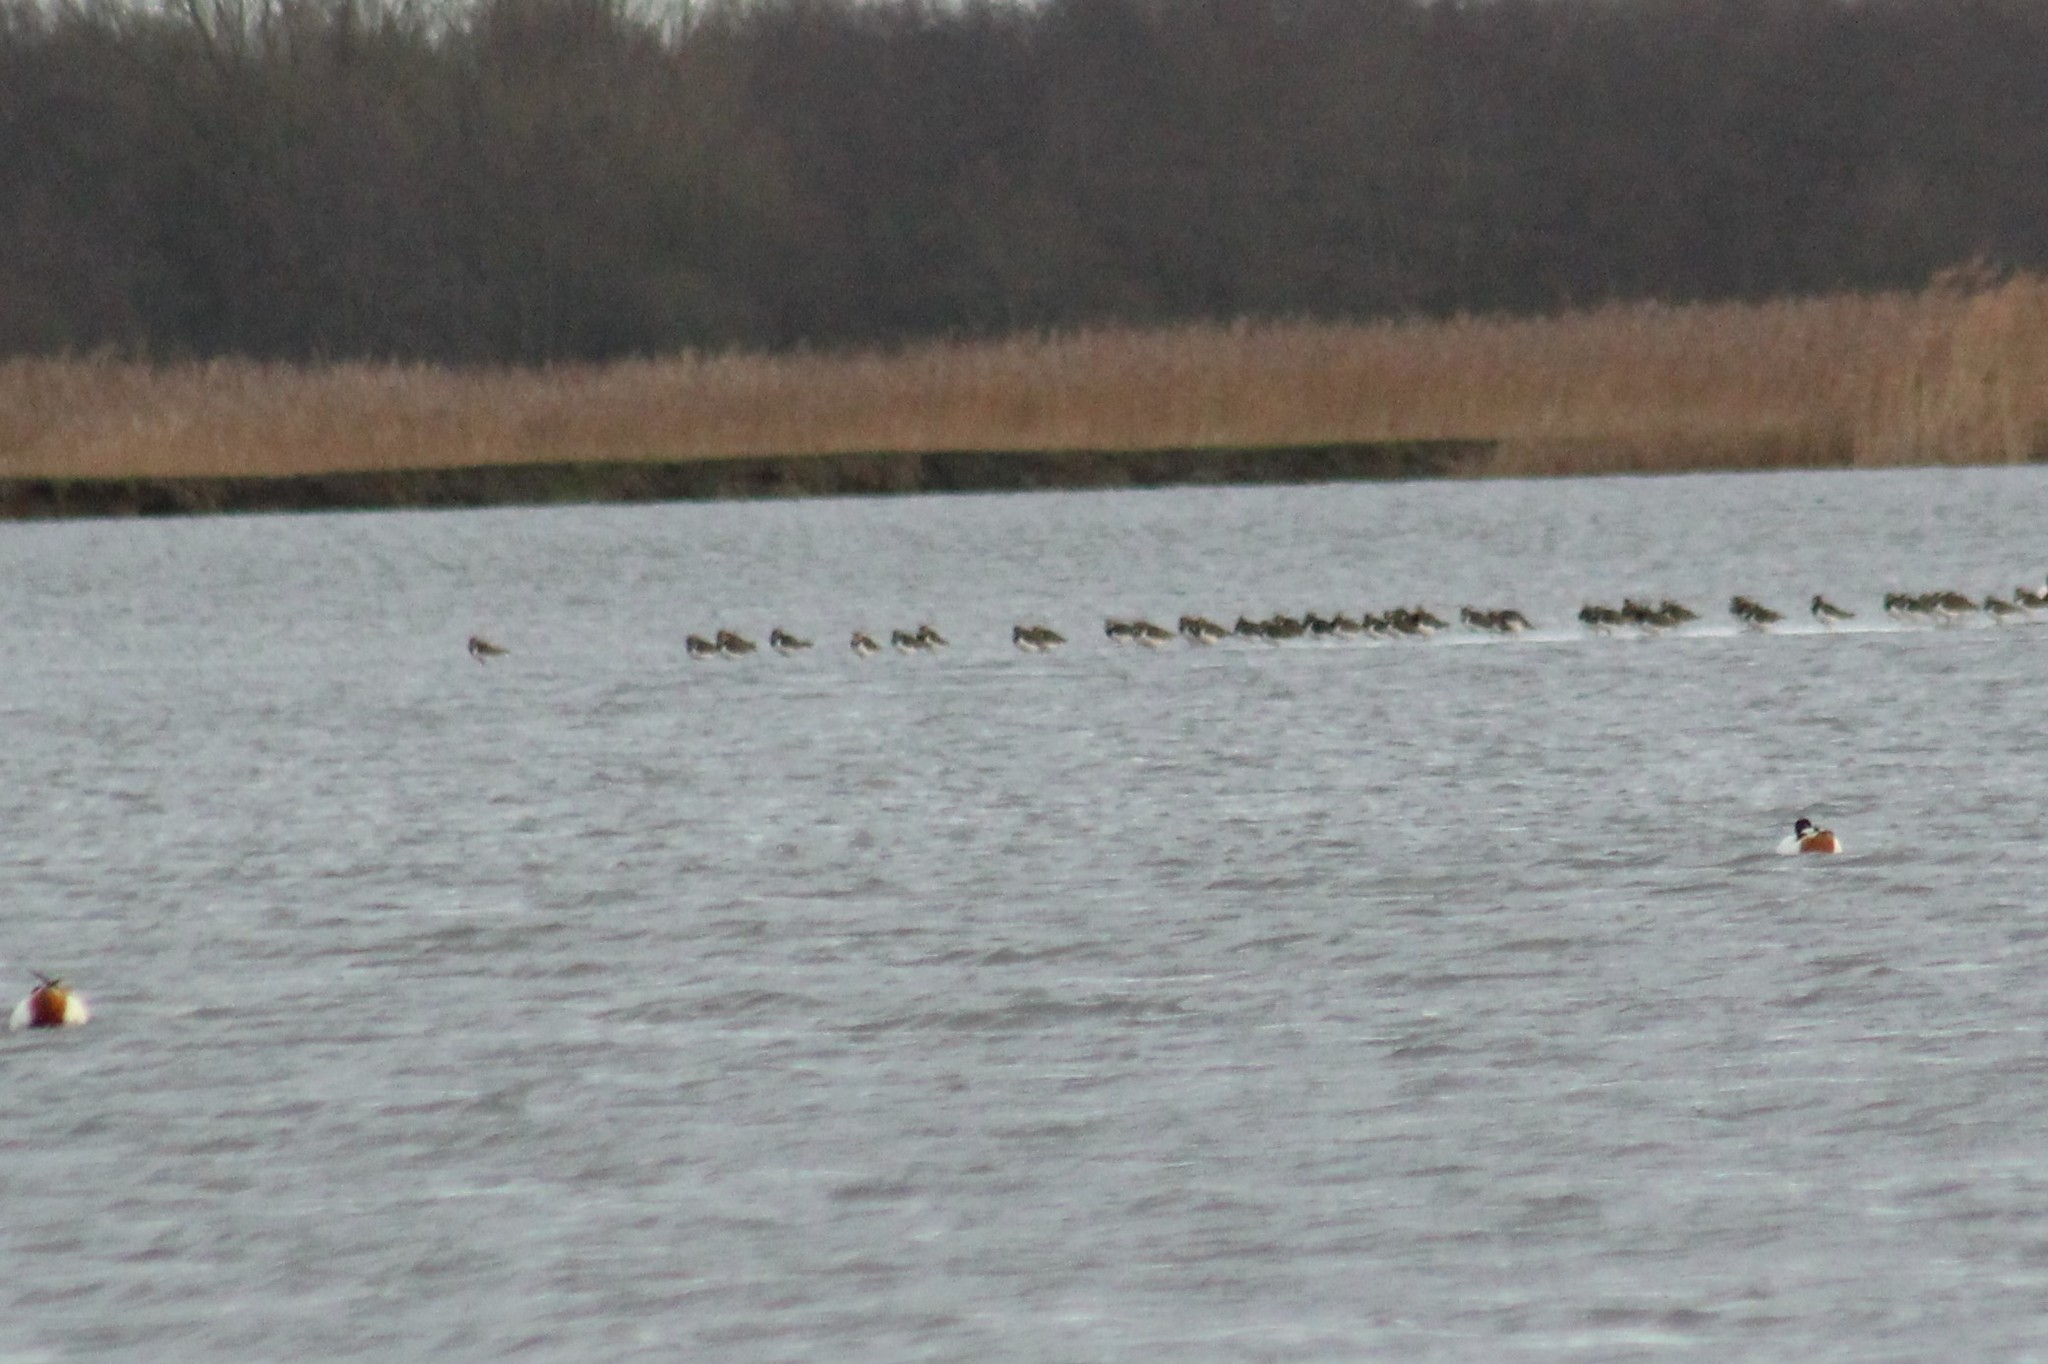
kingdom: Animalia
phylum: Chordata
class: Aves
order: Charadriiformes
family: Charadriidae
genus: Vanellus
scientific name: Vanellus vanellus
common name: Northern lapwing
